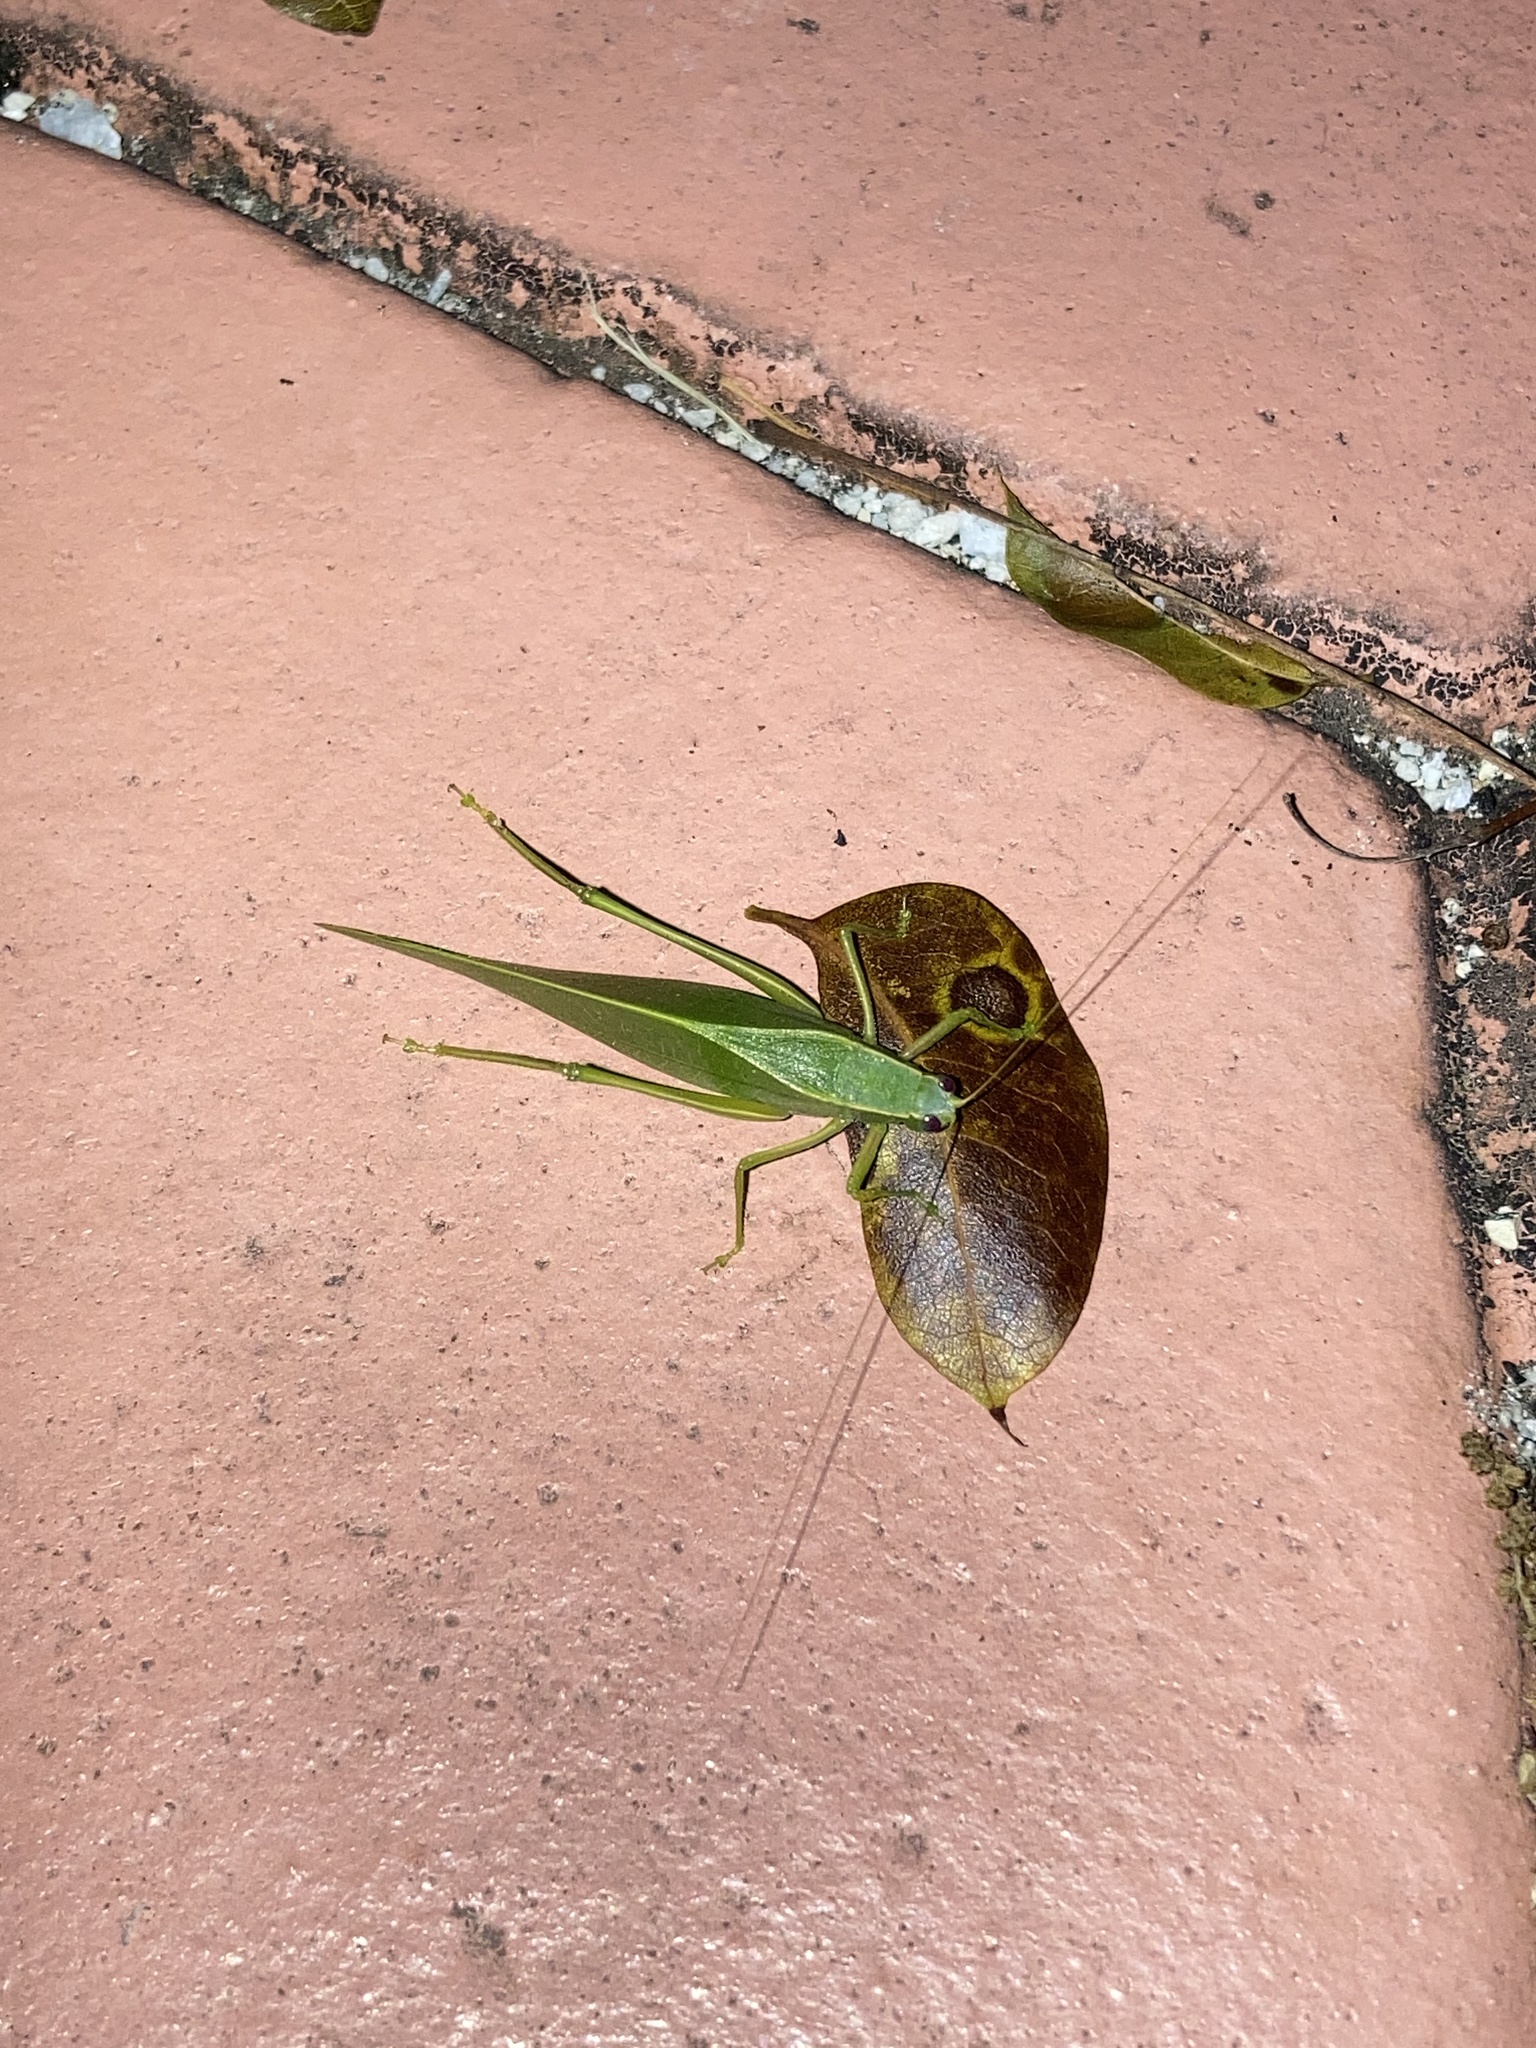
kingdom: Animalia
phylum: Arthropoda
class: Insecta
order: Orthoptera
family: Tettigoniidae
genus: Turpilia
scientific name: Turpilia rostrata
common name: Narrow-beaked katydid
